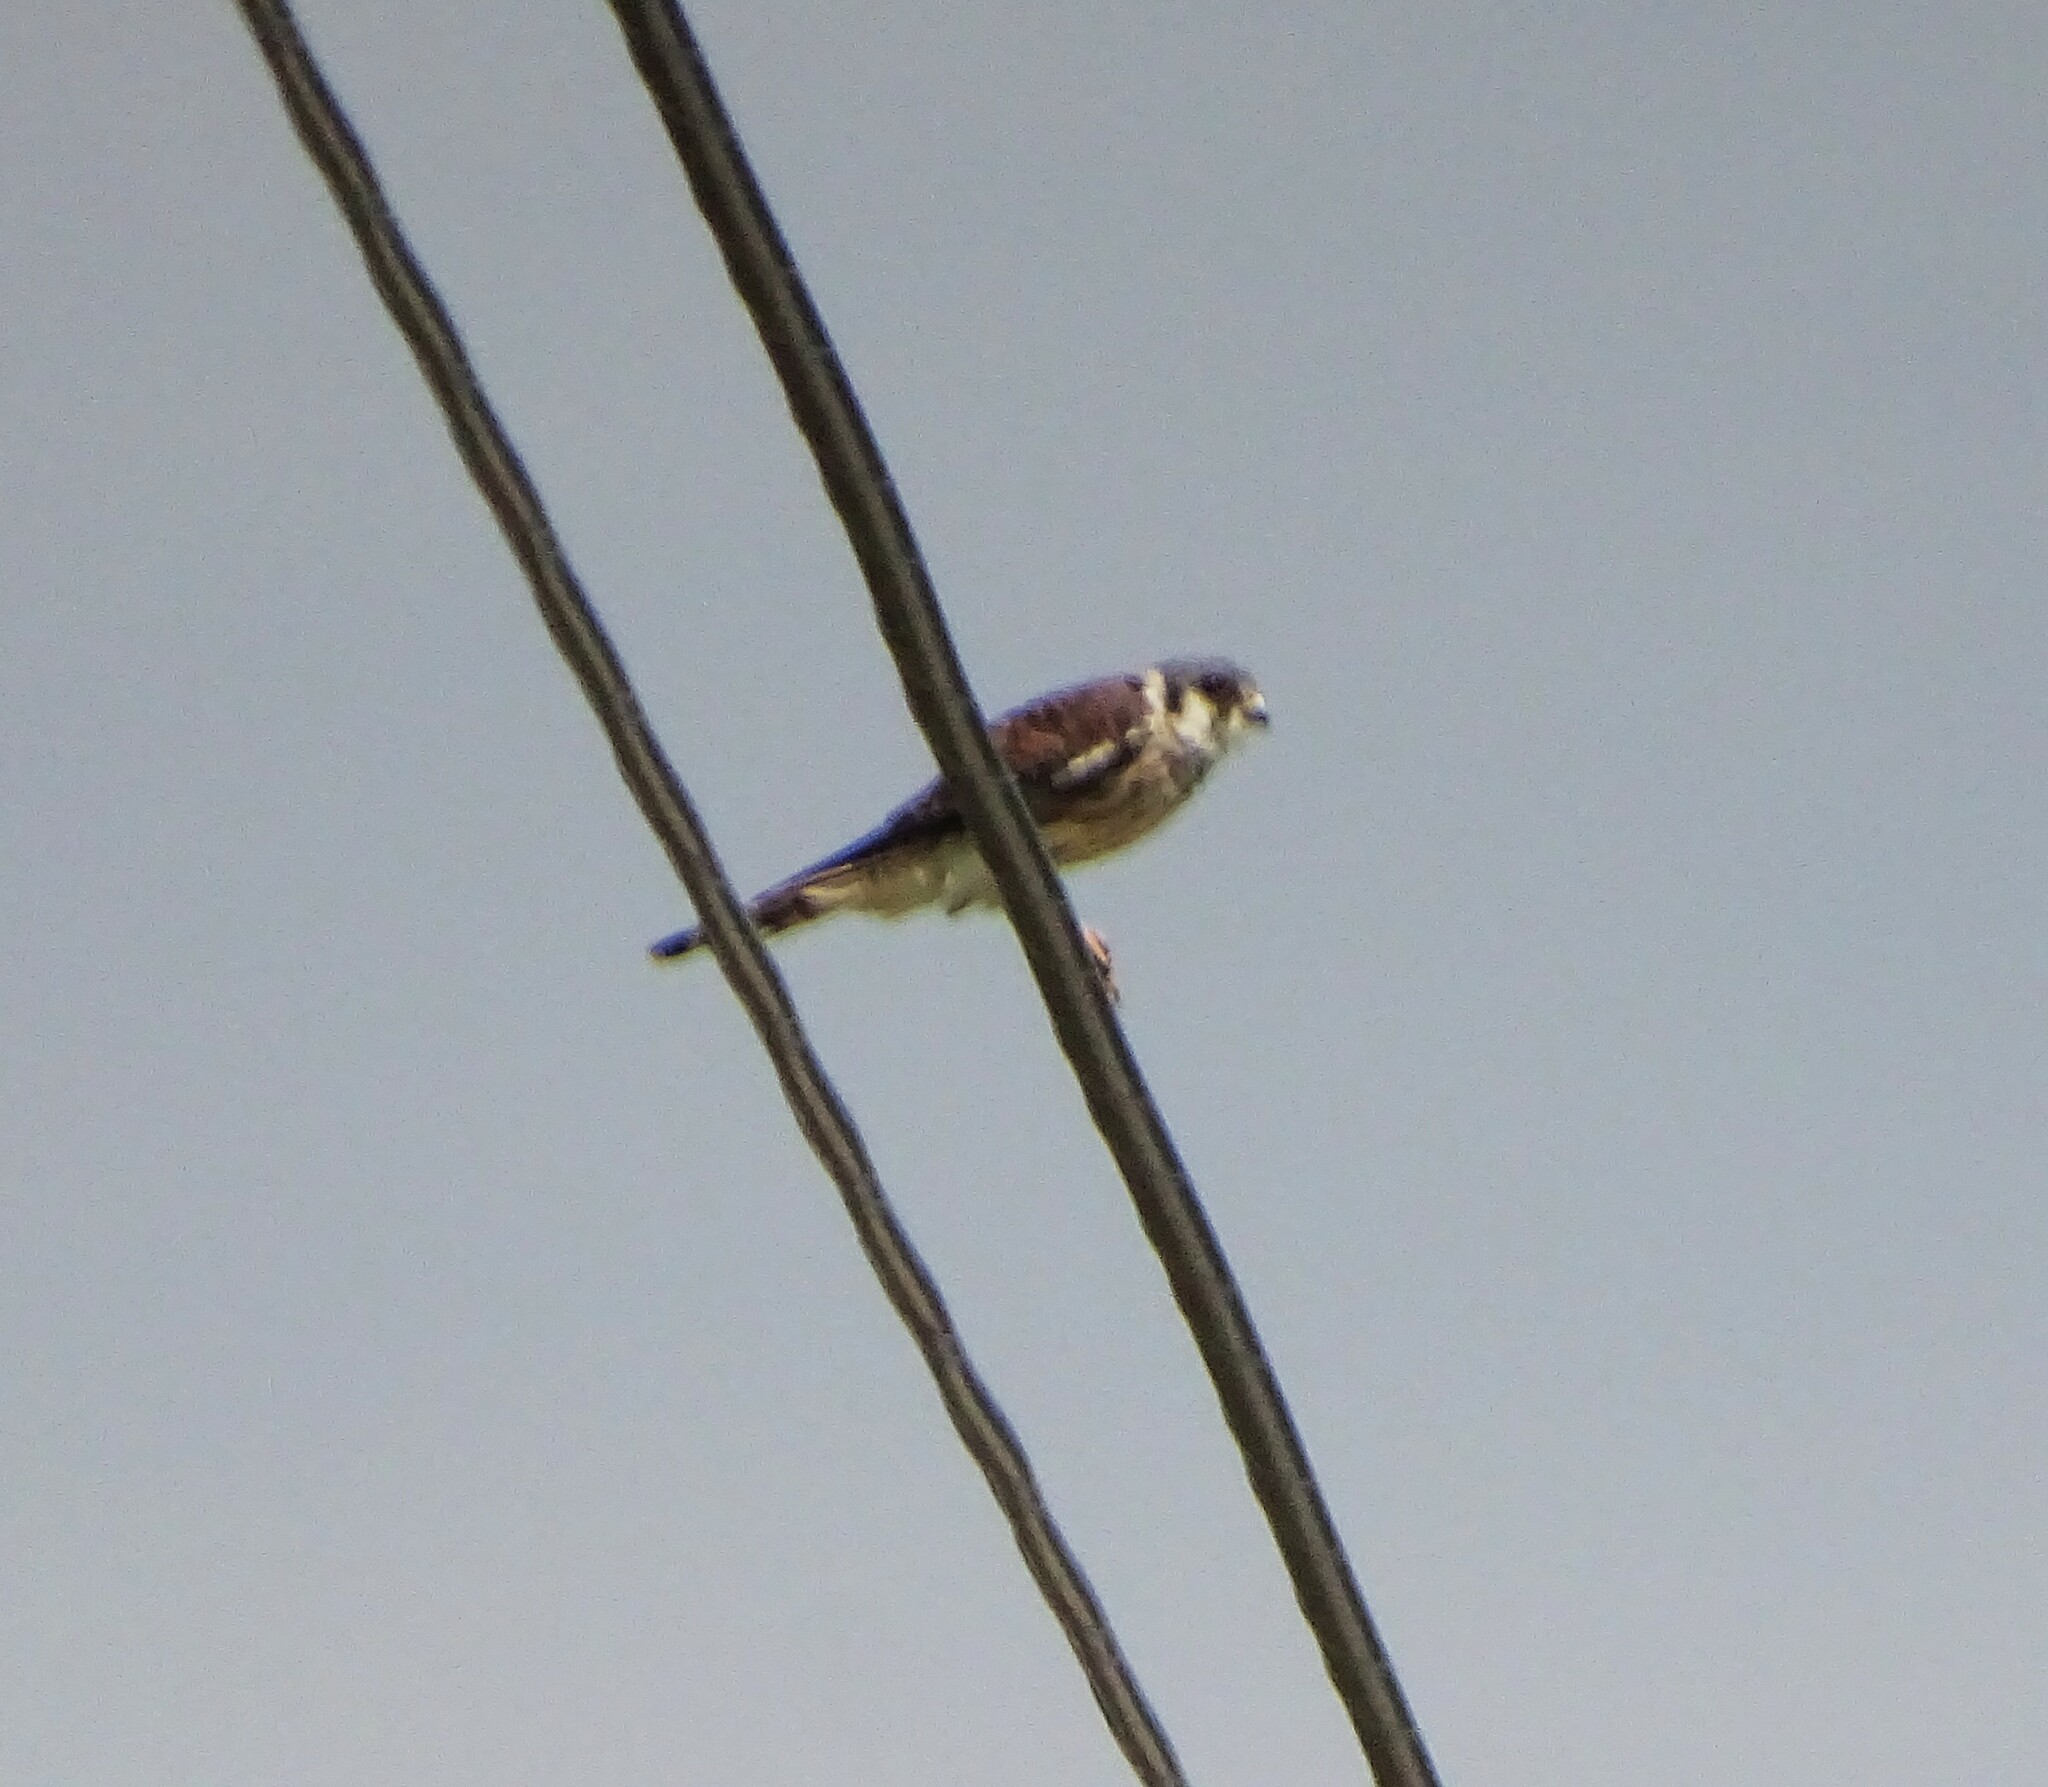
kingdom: Animalia
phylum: Chordata
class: Aves
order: Falconiformes
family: Falconidae
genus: Falco
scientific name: Falco sparverius
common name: American kestrel
